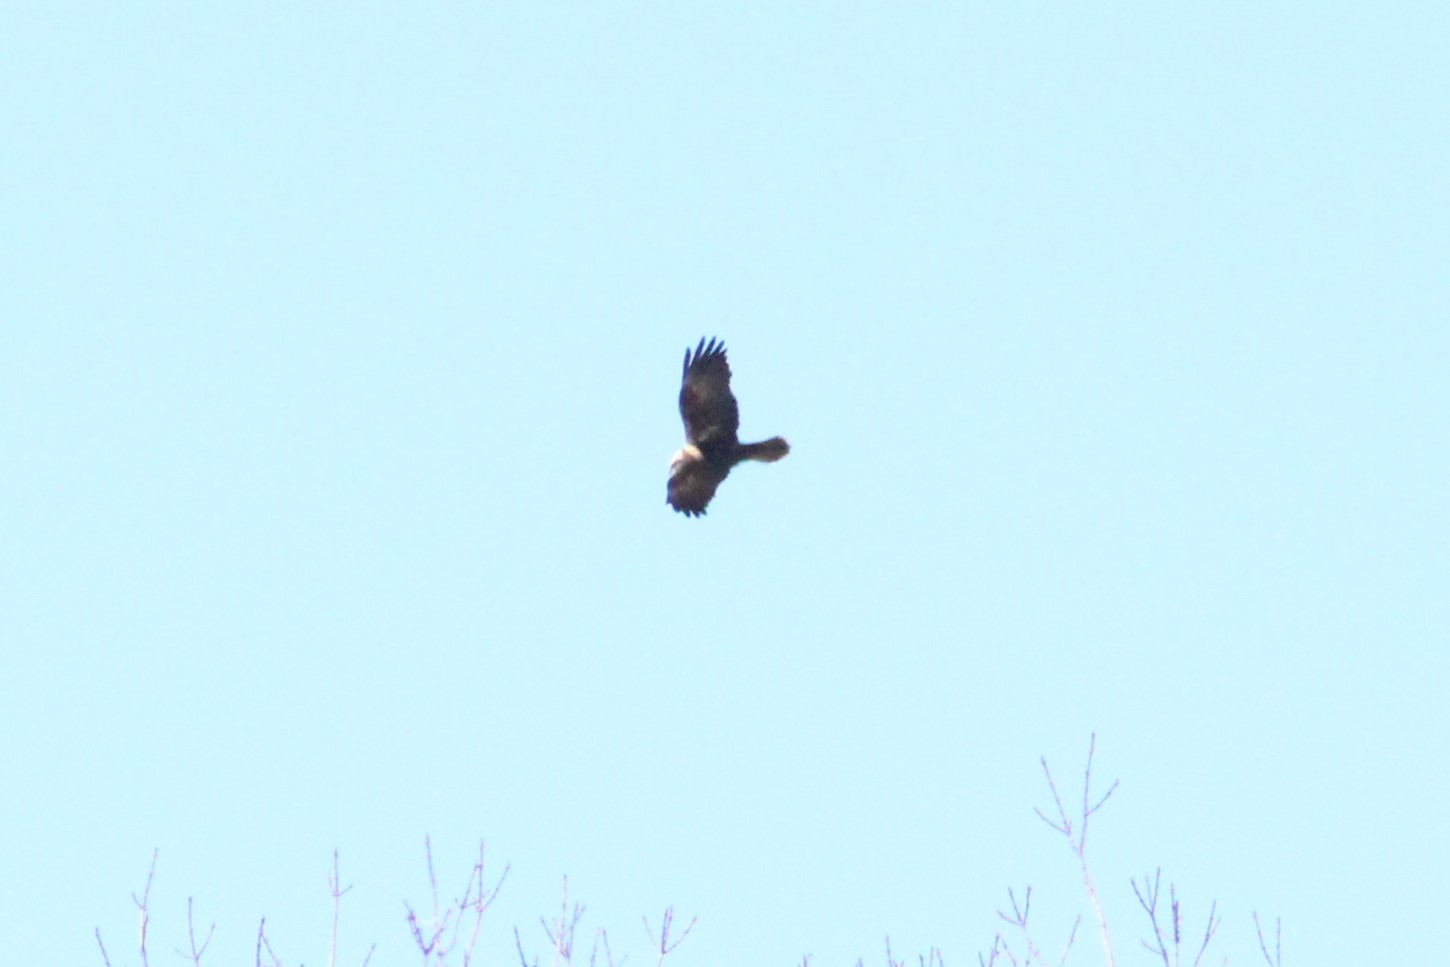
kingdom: Animalia
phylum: Chordata
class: Aves
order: Accipitriformes
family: Accipitridae
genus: Circus
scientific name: Circus aeruginosus
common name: Western marsh harrier
